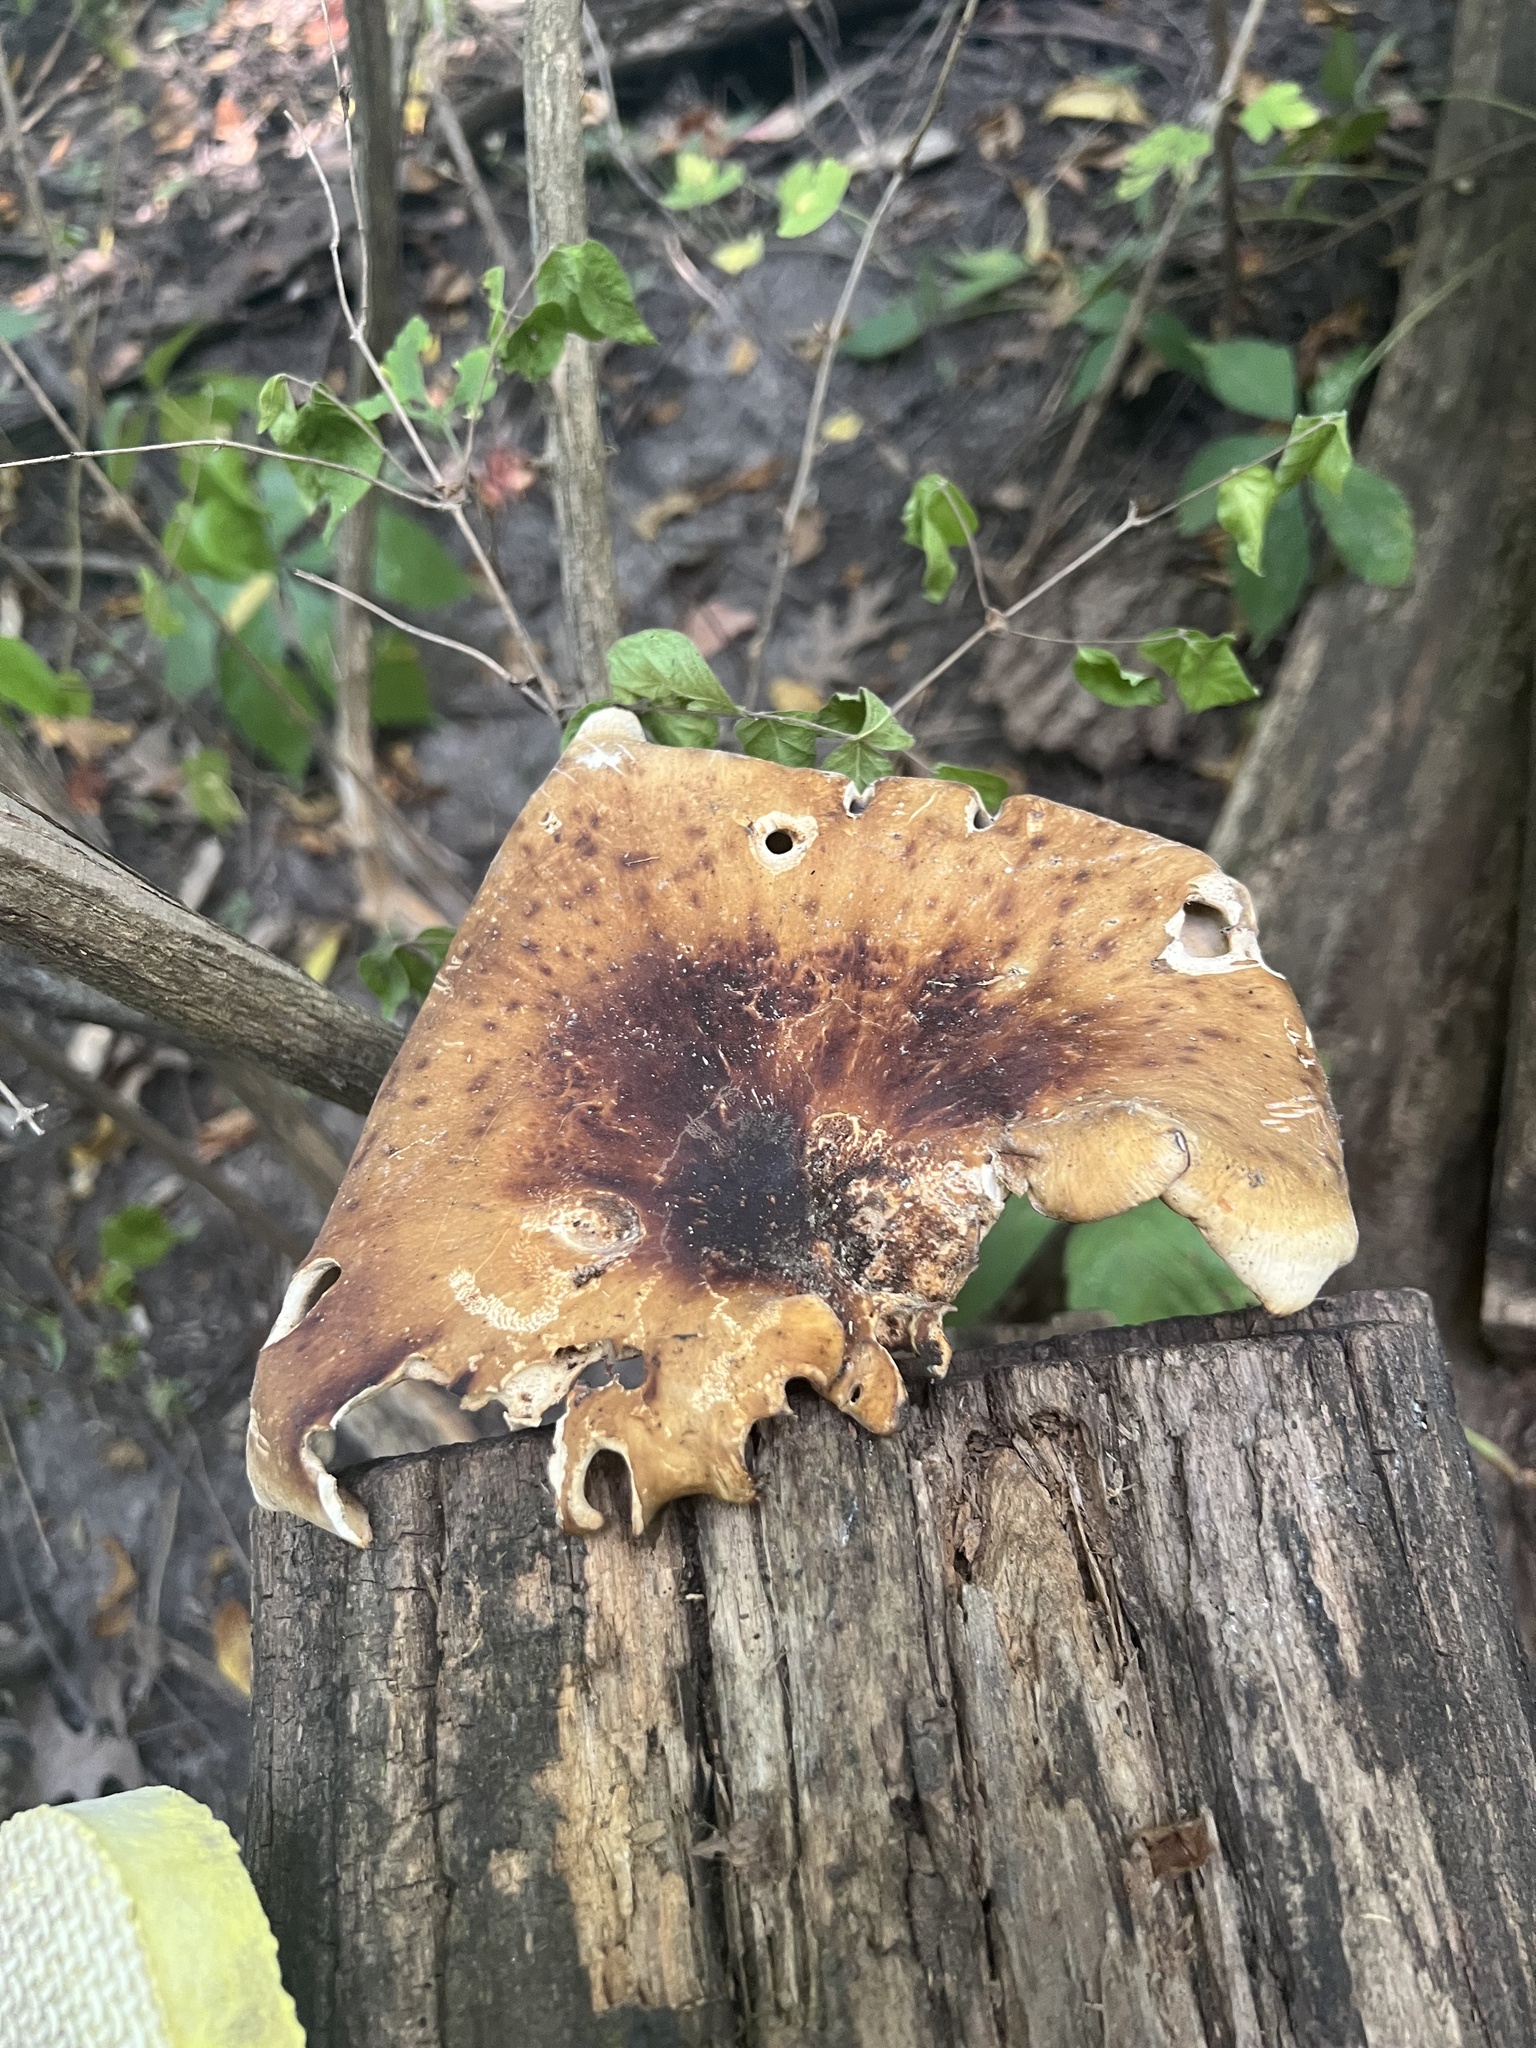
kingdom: Fungi
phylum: Basidiomycota
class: Agaricomycetes
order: Polyporales
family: Polyporaceae
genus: Picipes
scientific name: Picipes badius
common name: Bay polypore
